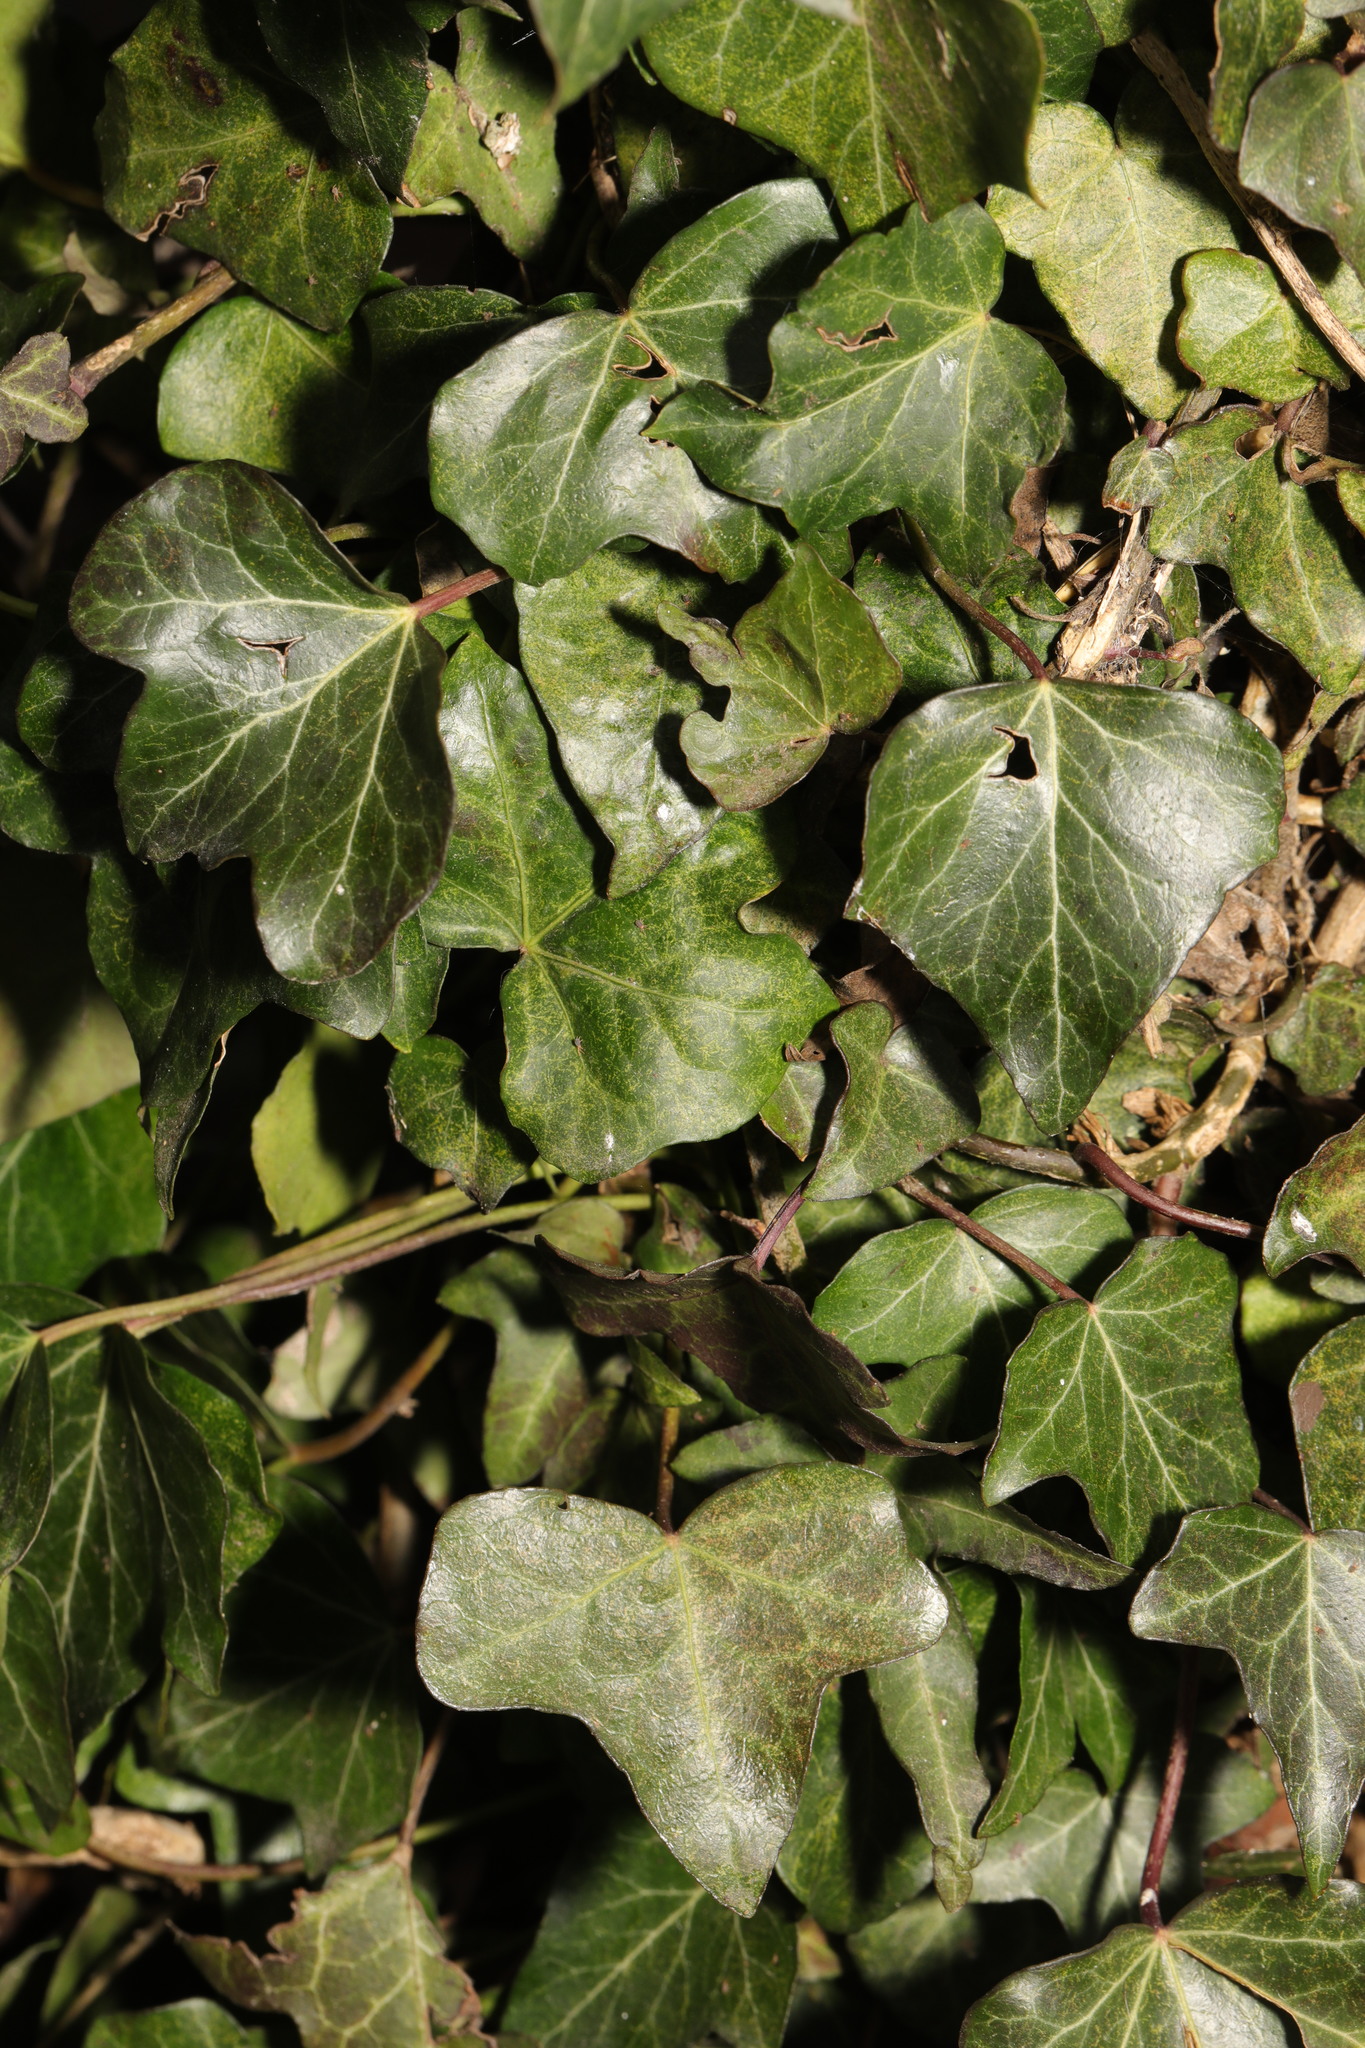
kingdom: Plantae
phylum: Tracheophyta
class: Magnoliopsida
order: Apiales
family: Araliaceae
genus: Hedera
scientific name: Hedera helix
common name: Ivy
